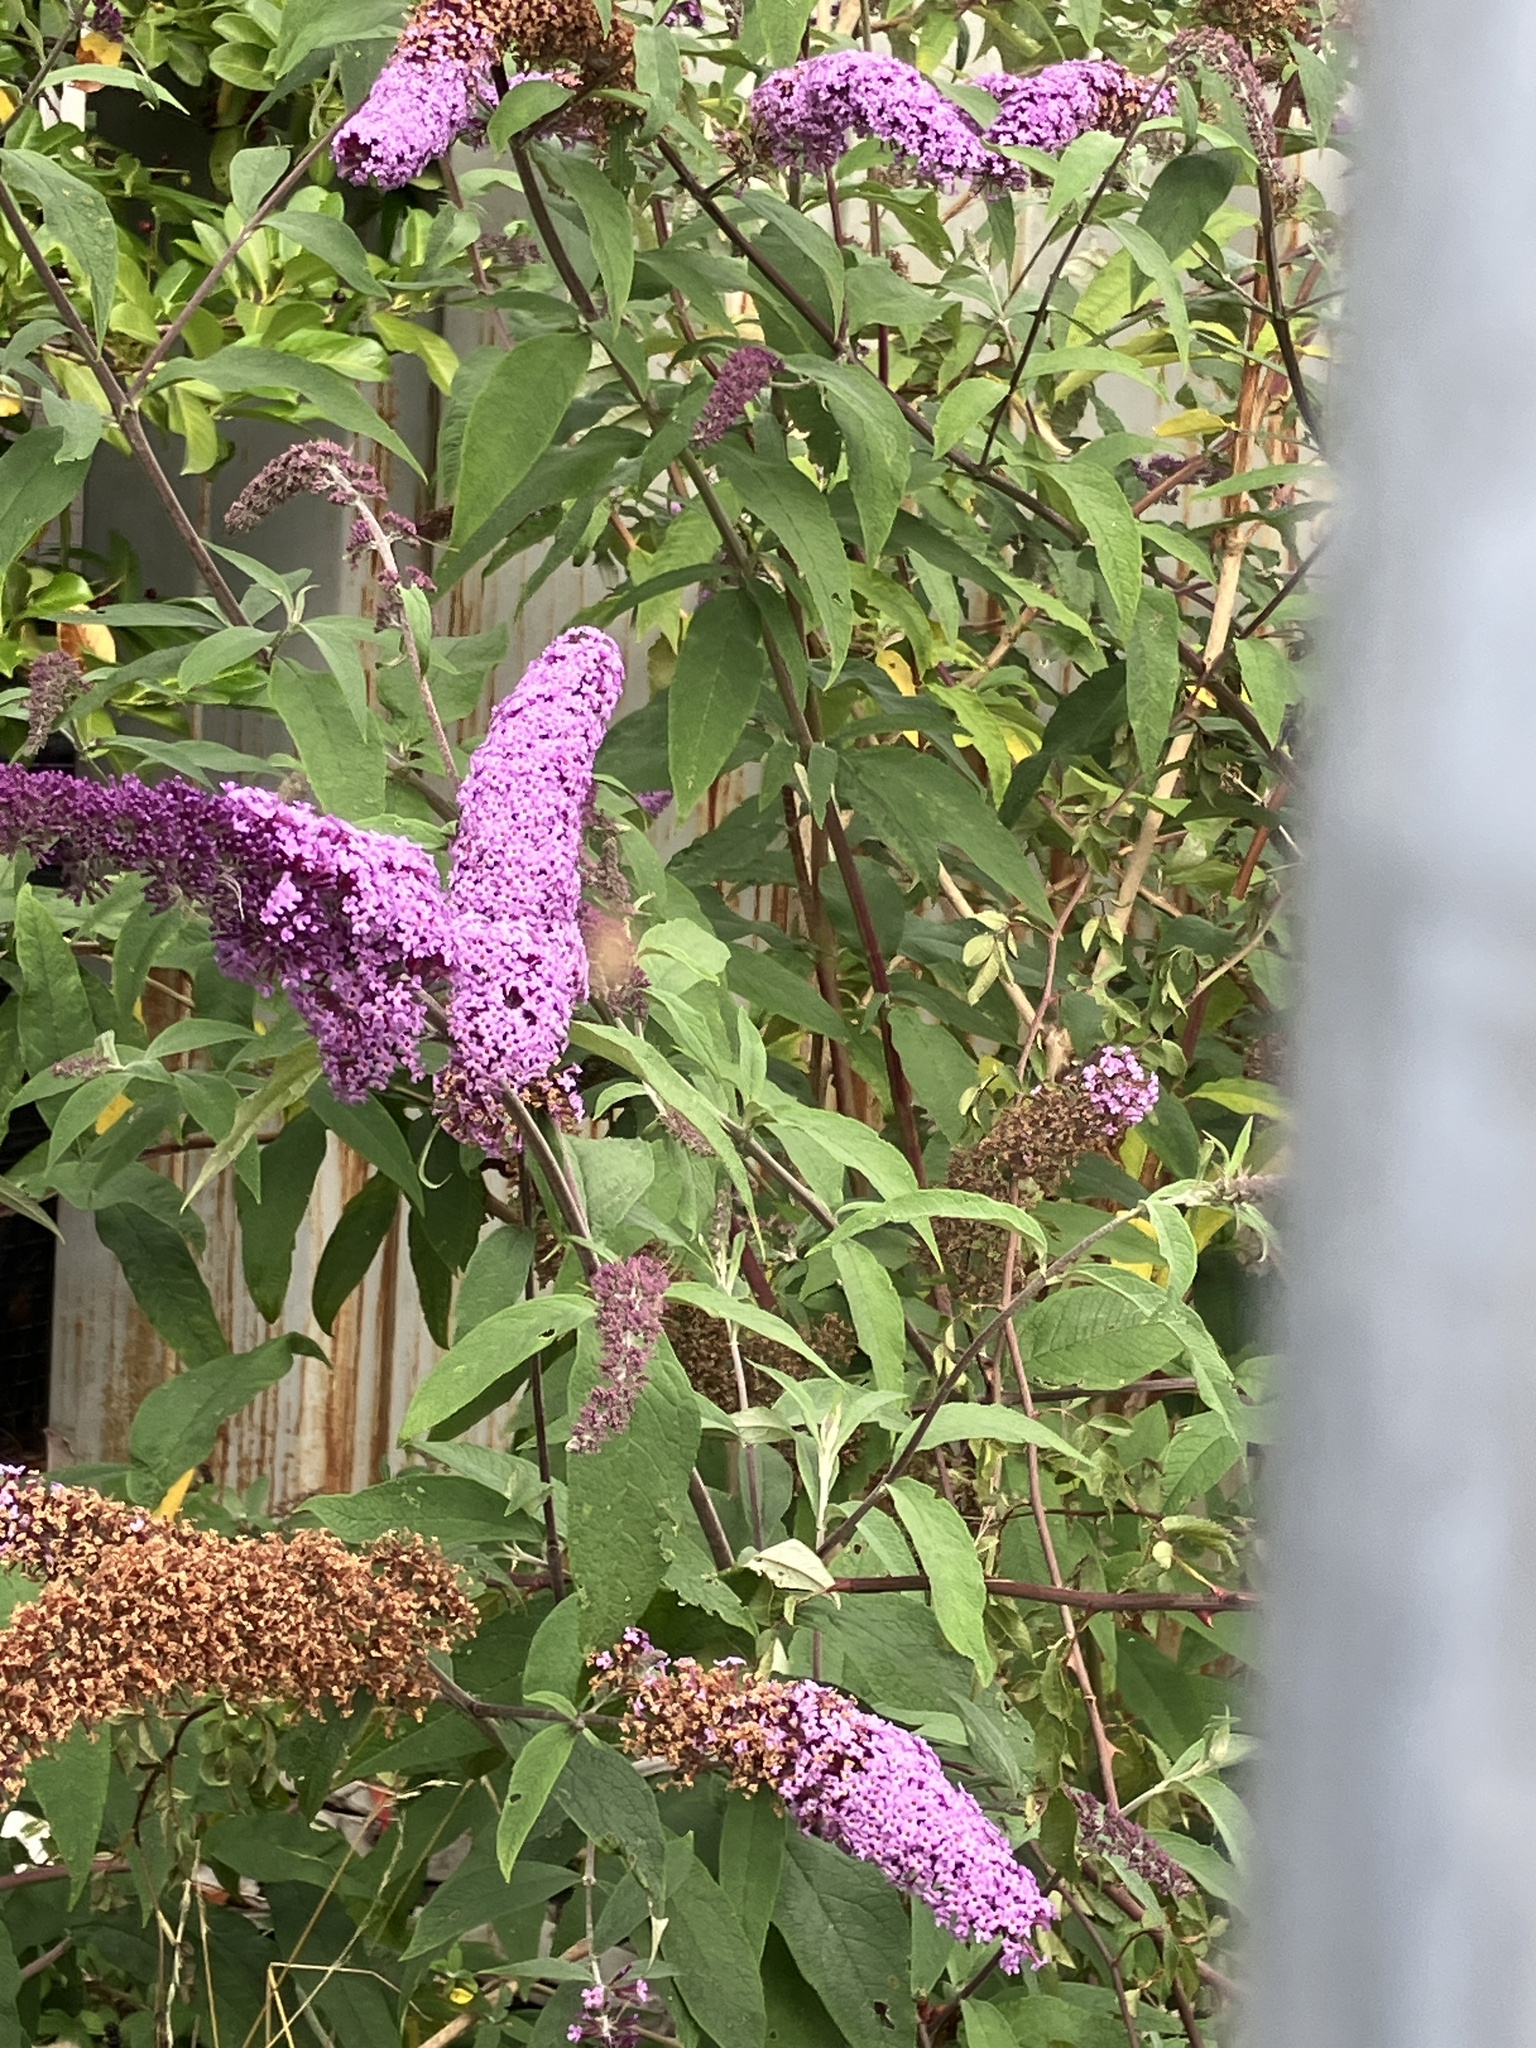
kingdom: Plantae
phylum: Tracheophyta
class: Magnoliopsida
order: Lamiales
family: Scrophulariaceae
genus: Buddleja
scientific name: Buddleja davidii
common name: Butterfly-bush
